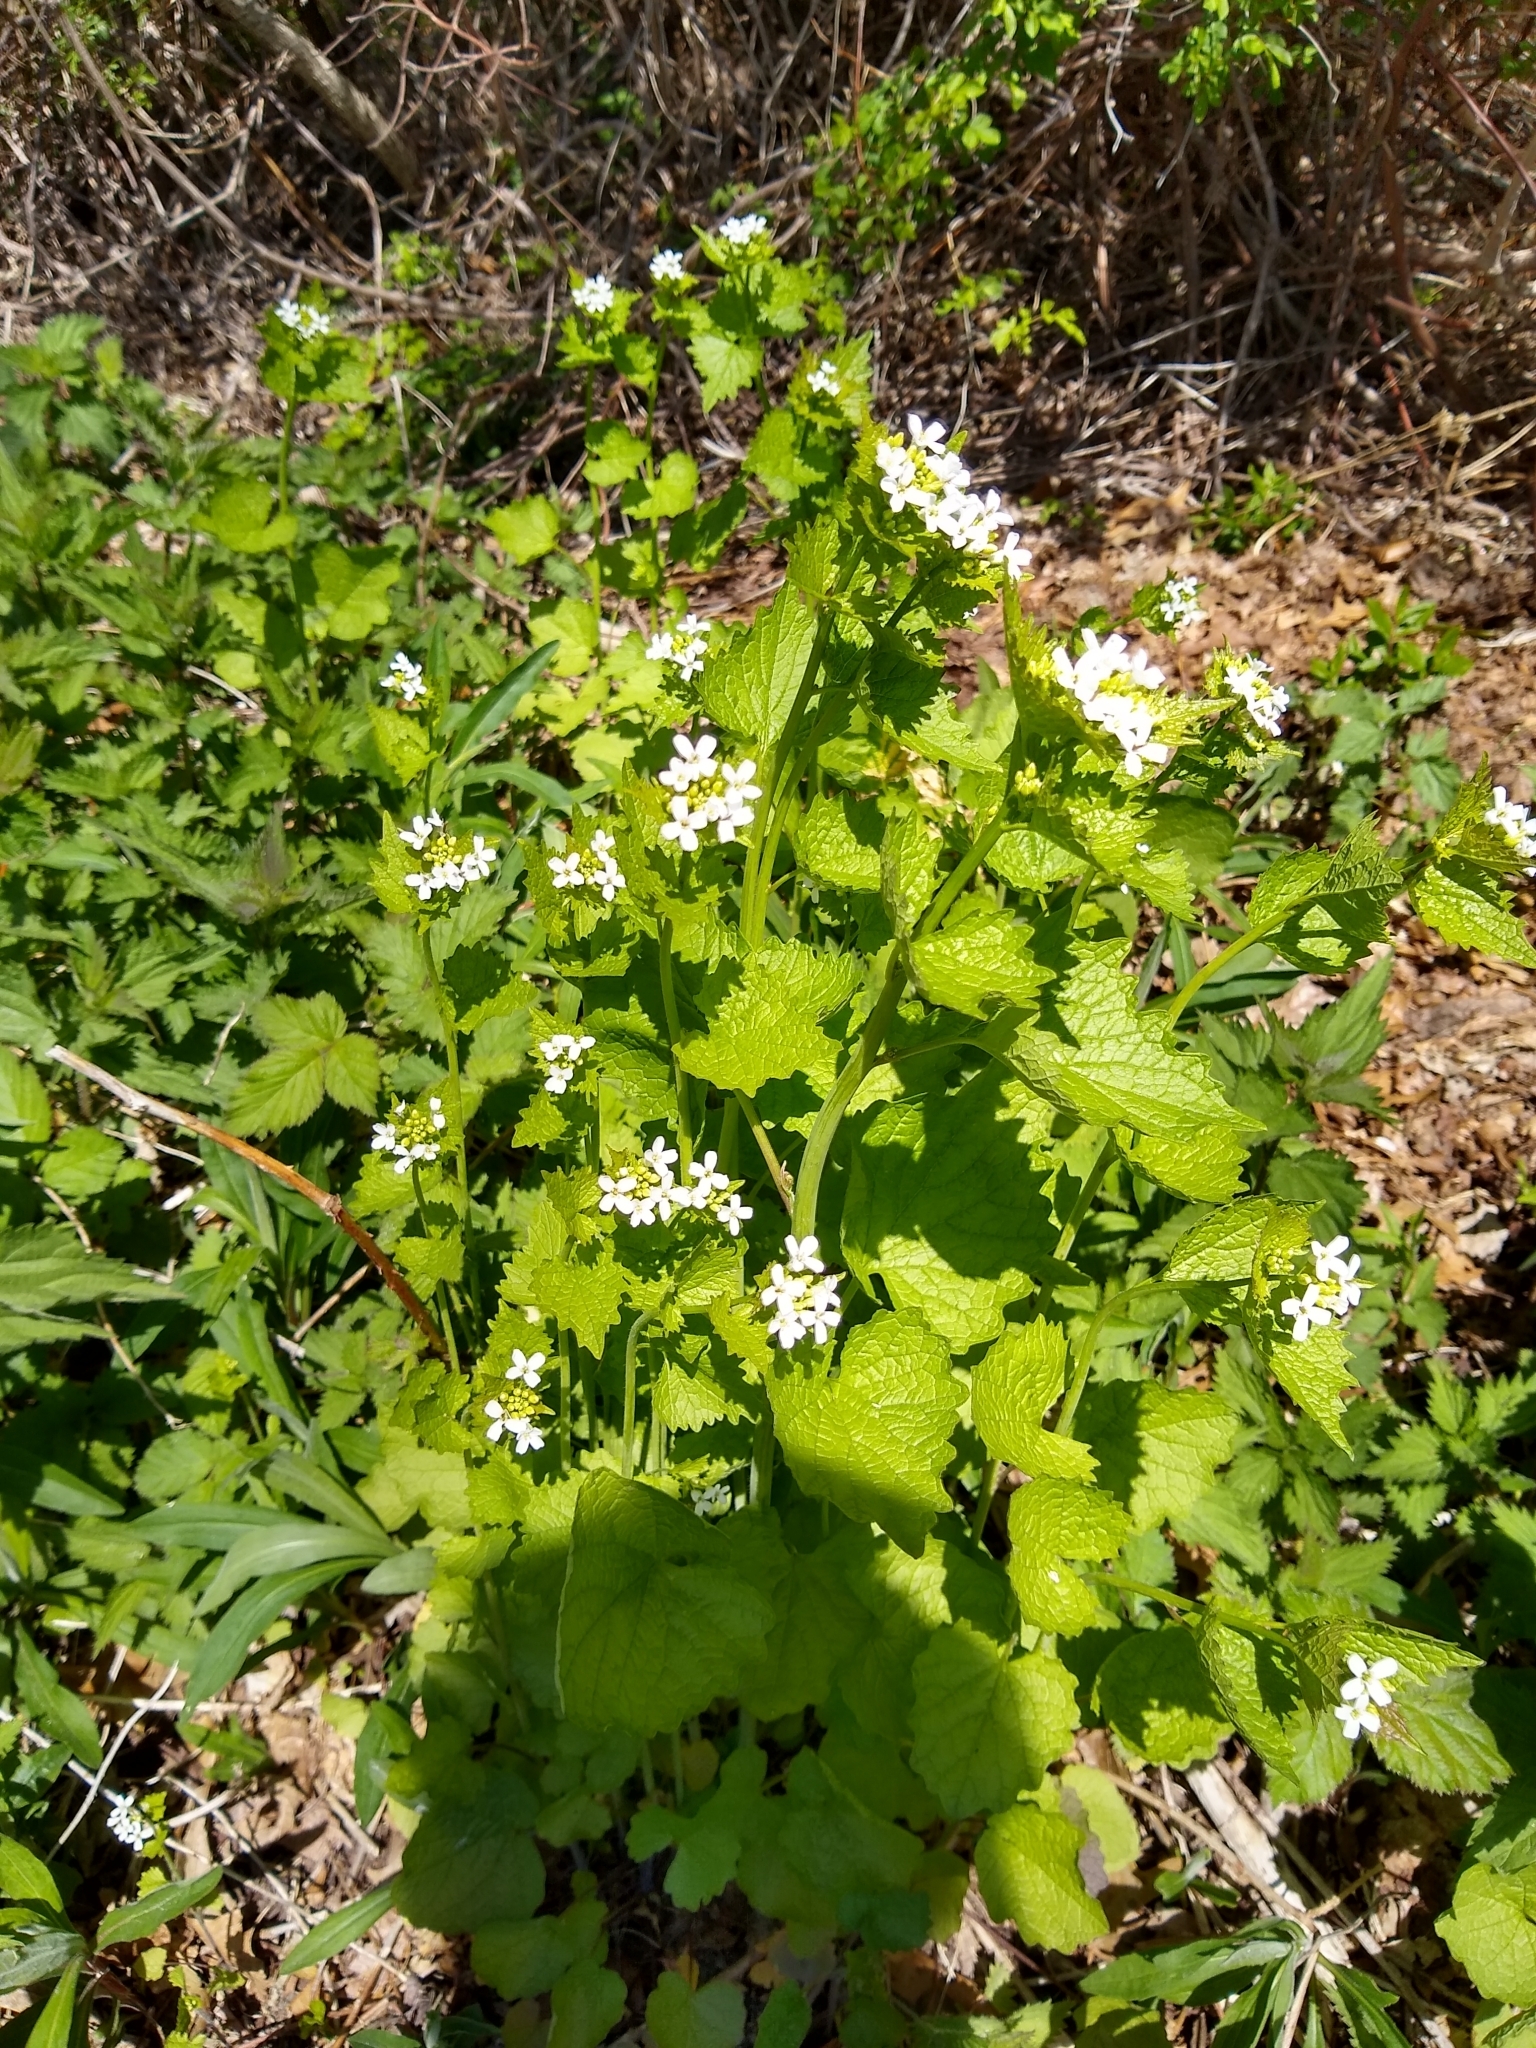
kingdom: Plantae
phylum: Tracheophyta
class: Magnoliopsida
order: Brassicales
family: Brassicaceae
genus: Alliaria
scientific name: Alliaria petiolata
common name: Garlic mustard
